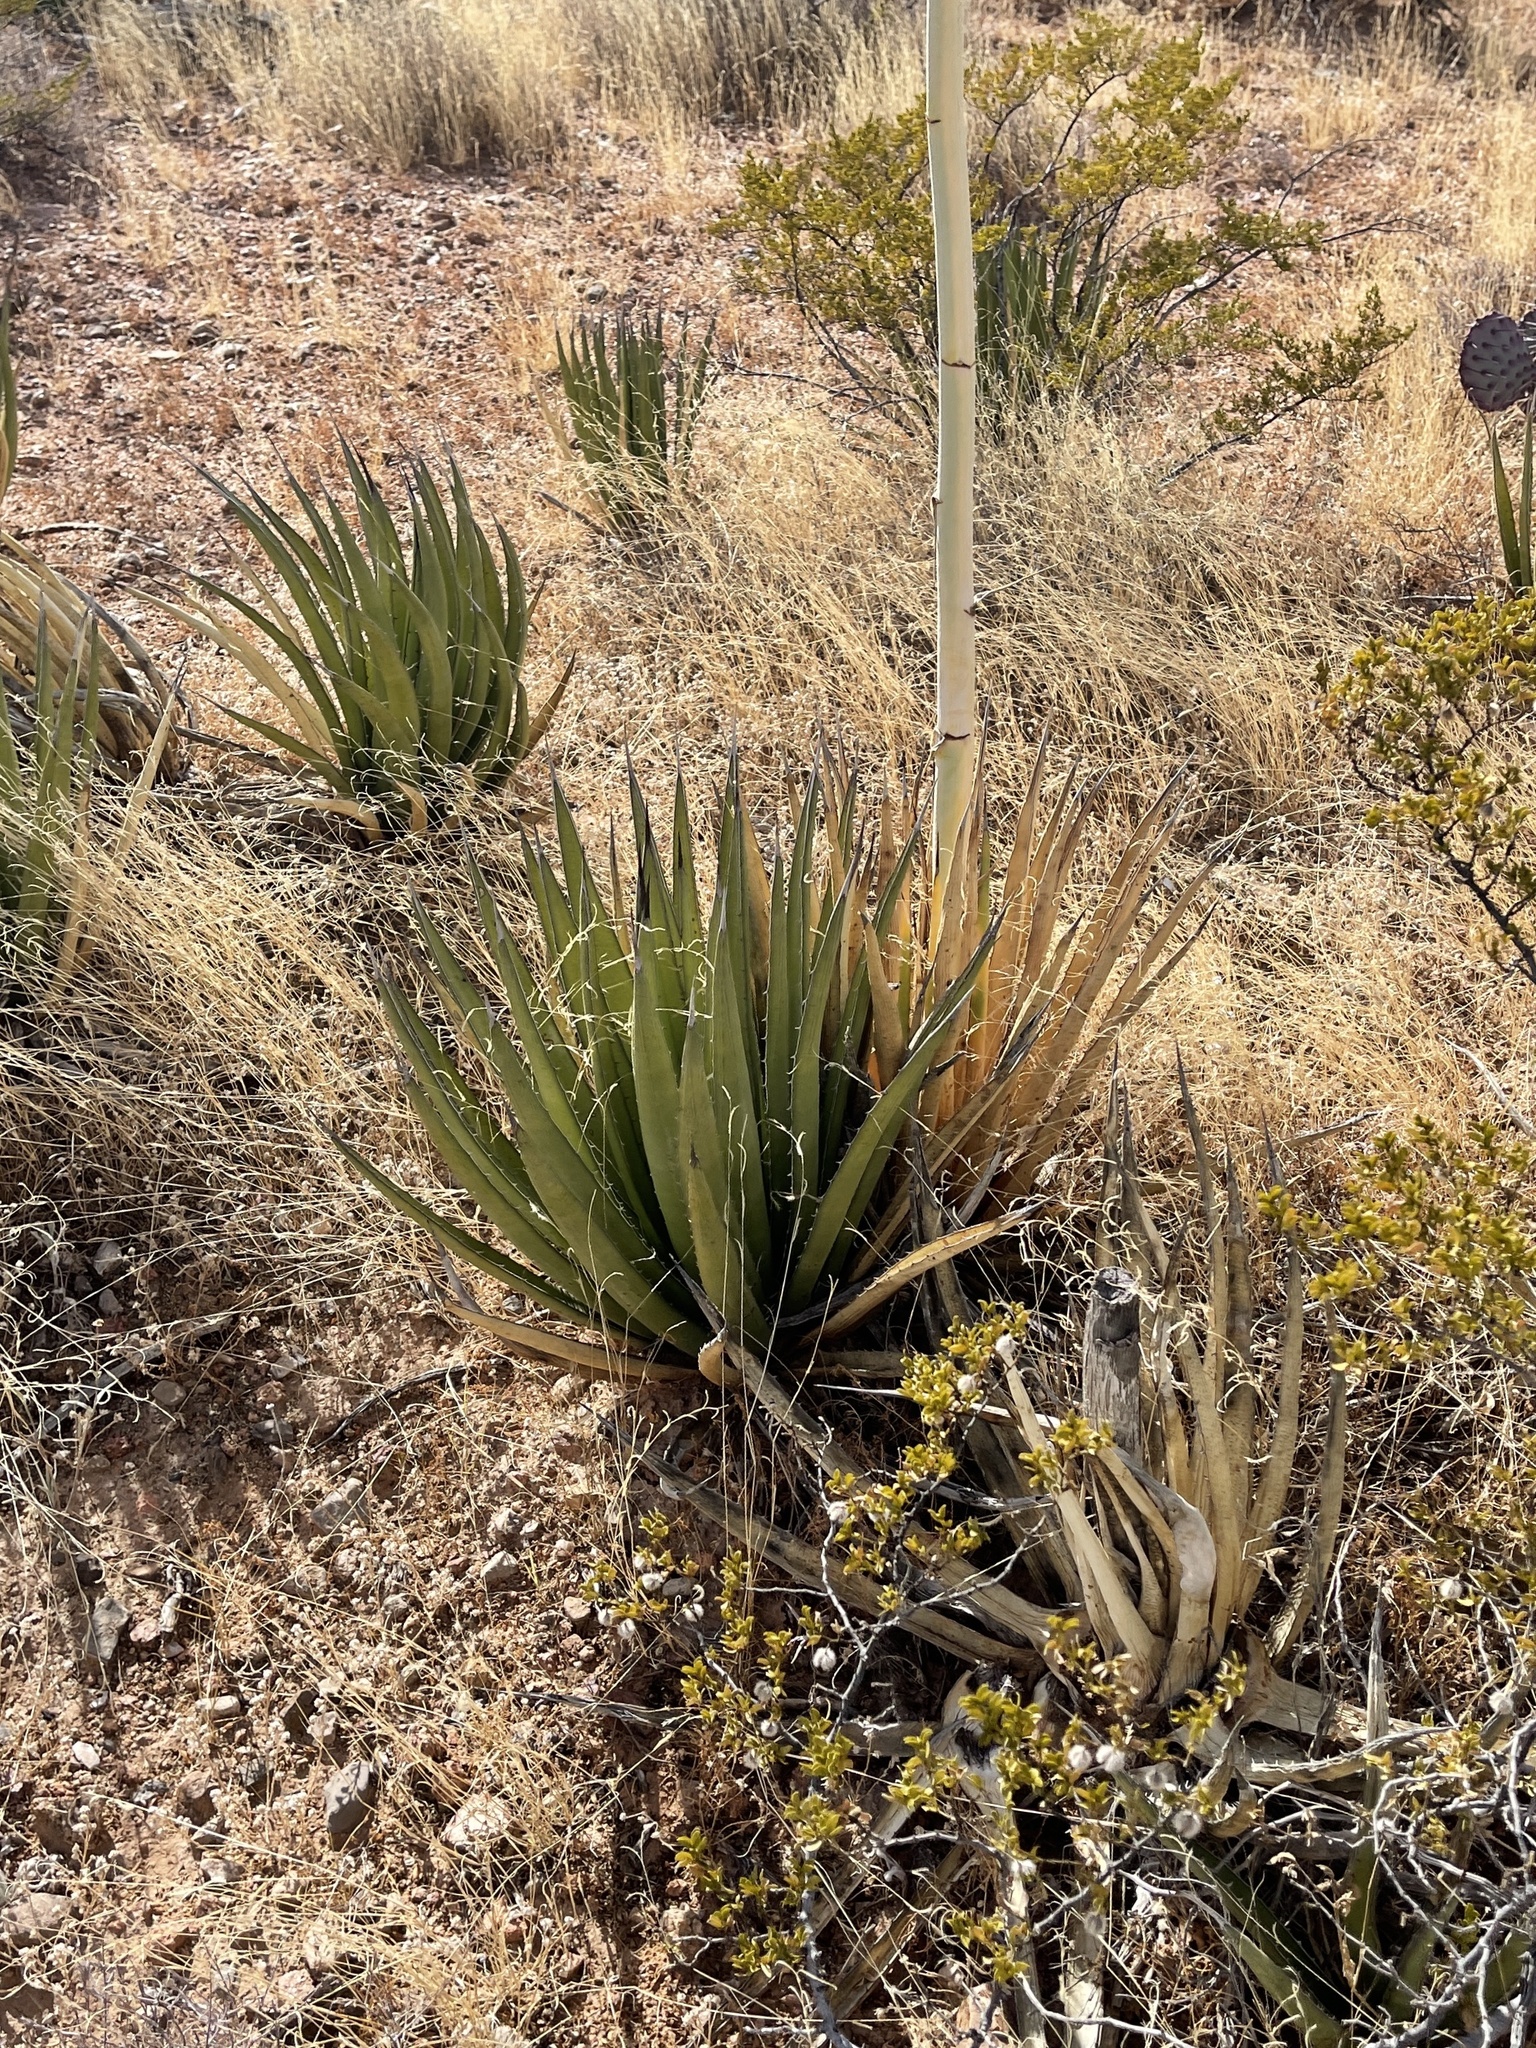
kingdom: Plantae
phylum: Tracheophyta
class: Liliopsida
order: Asparagales
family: Asparagaceae
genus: Agave
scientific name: Agave lechuguilla
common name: Lecheguilla agave
